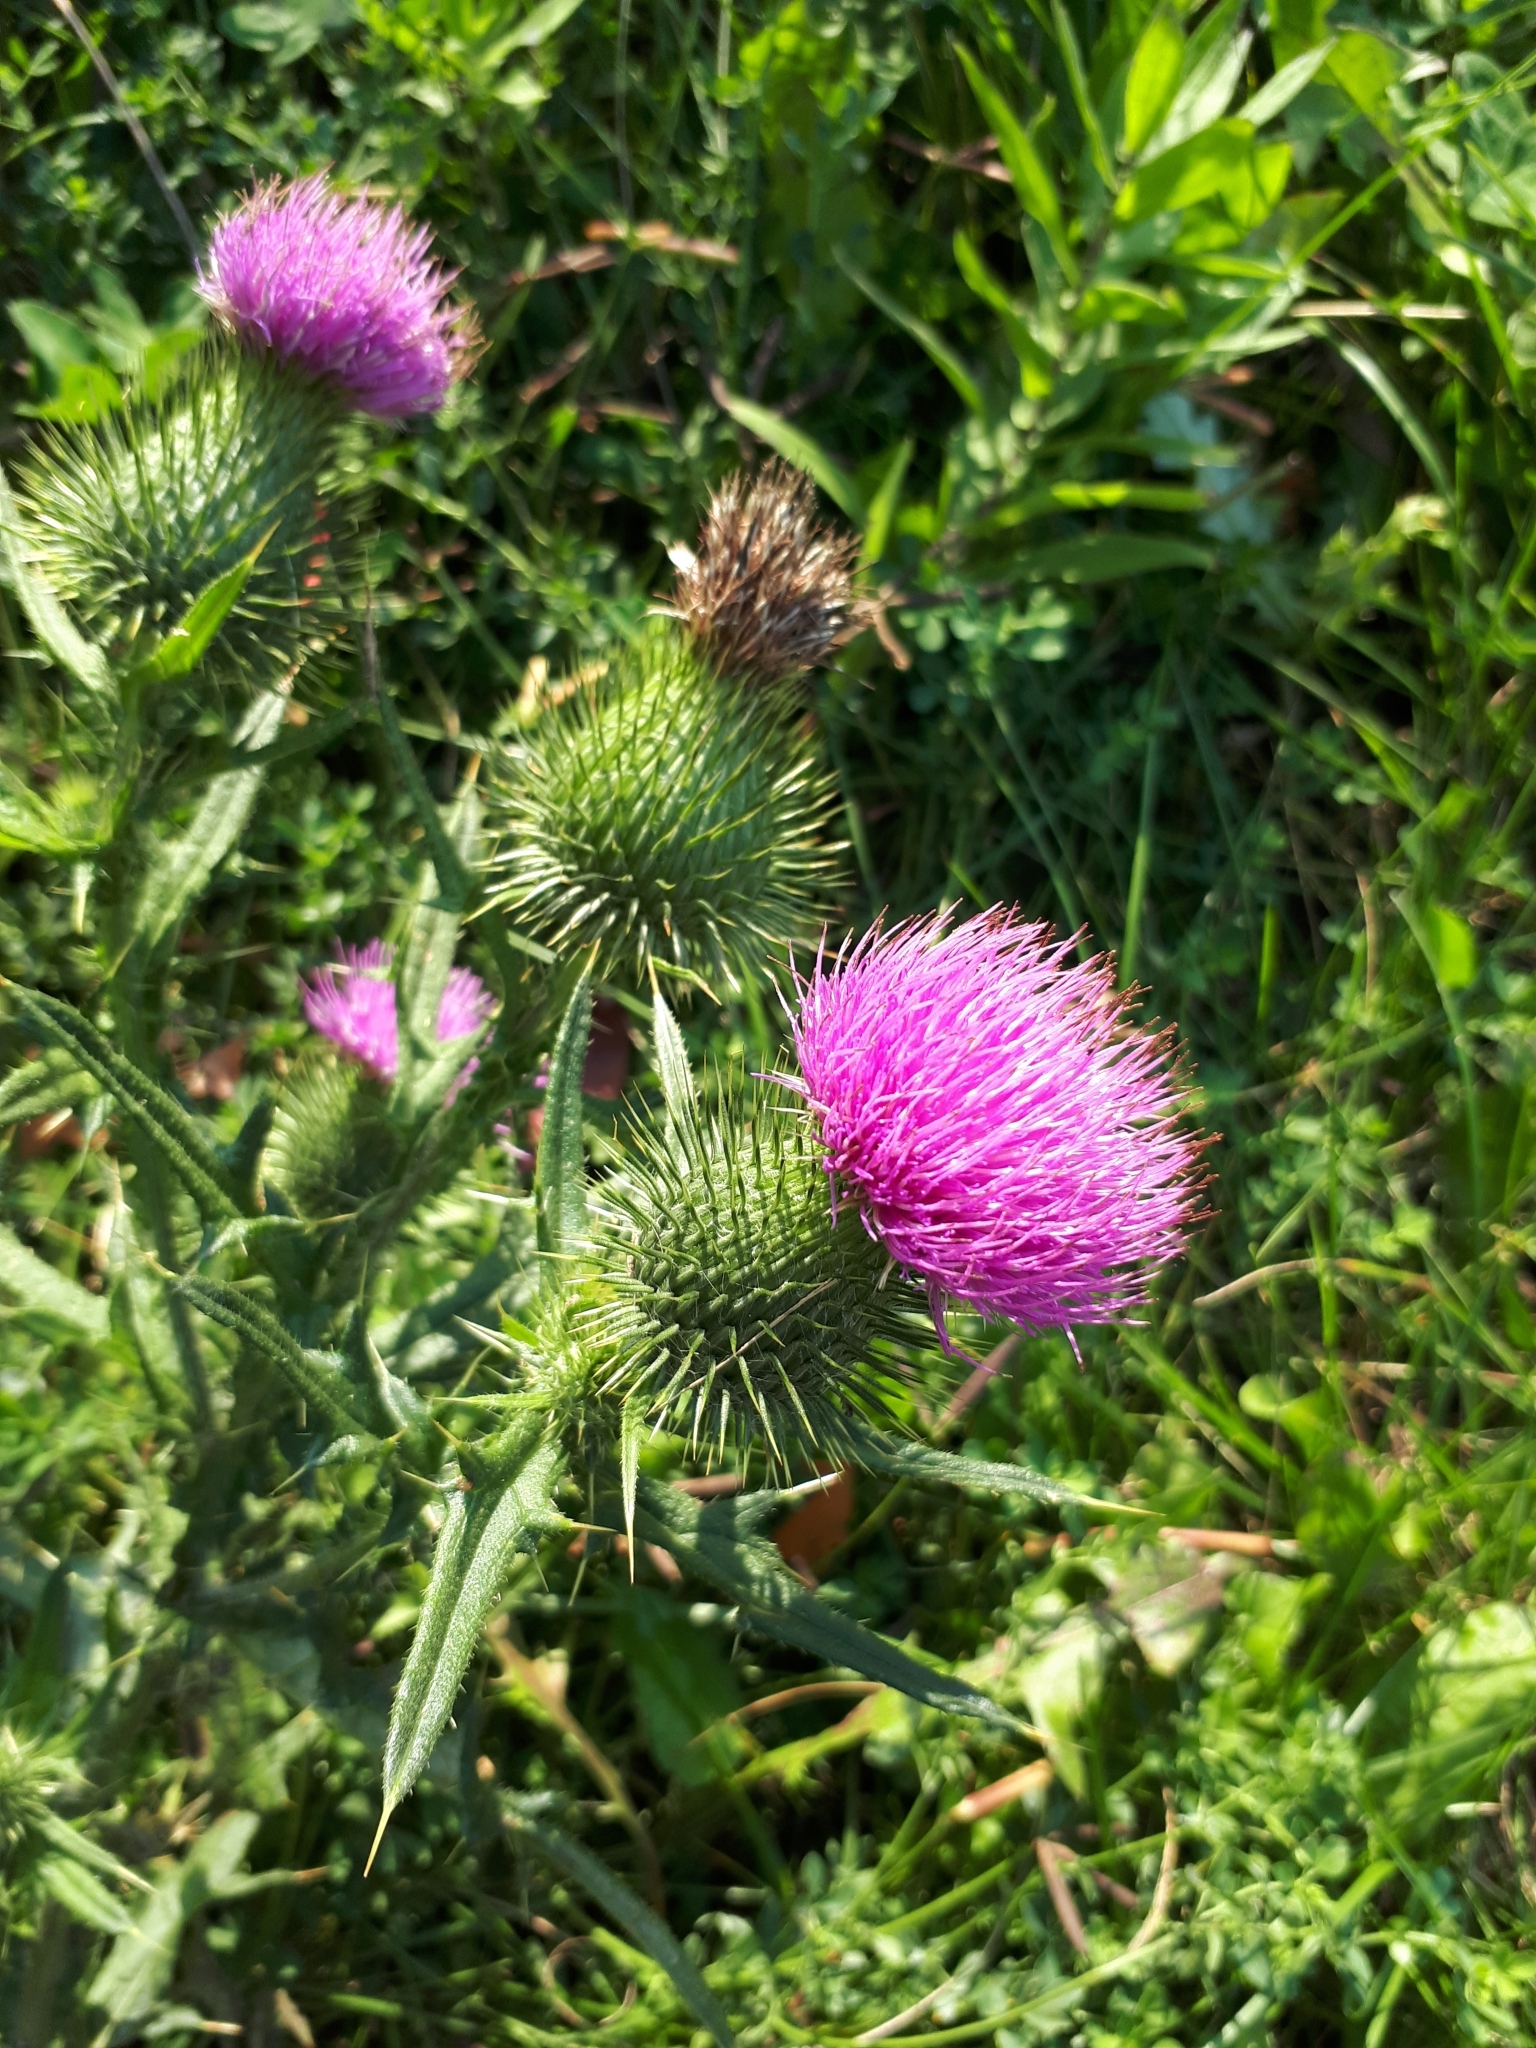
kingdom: Plantae
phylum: Tracheophyta
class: Magnoliopsida
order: Asterales
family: Asteraceae
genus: Cirsium
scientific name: Cirsium vulgare
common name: Bull thistle
